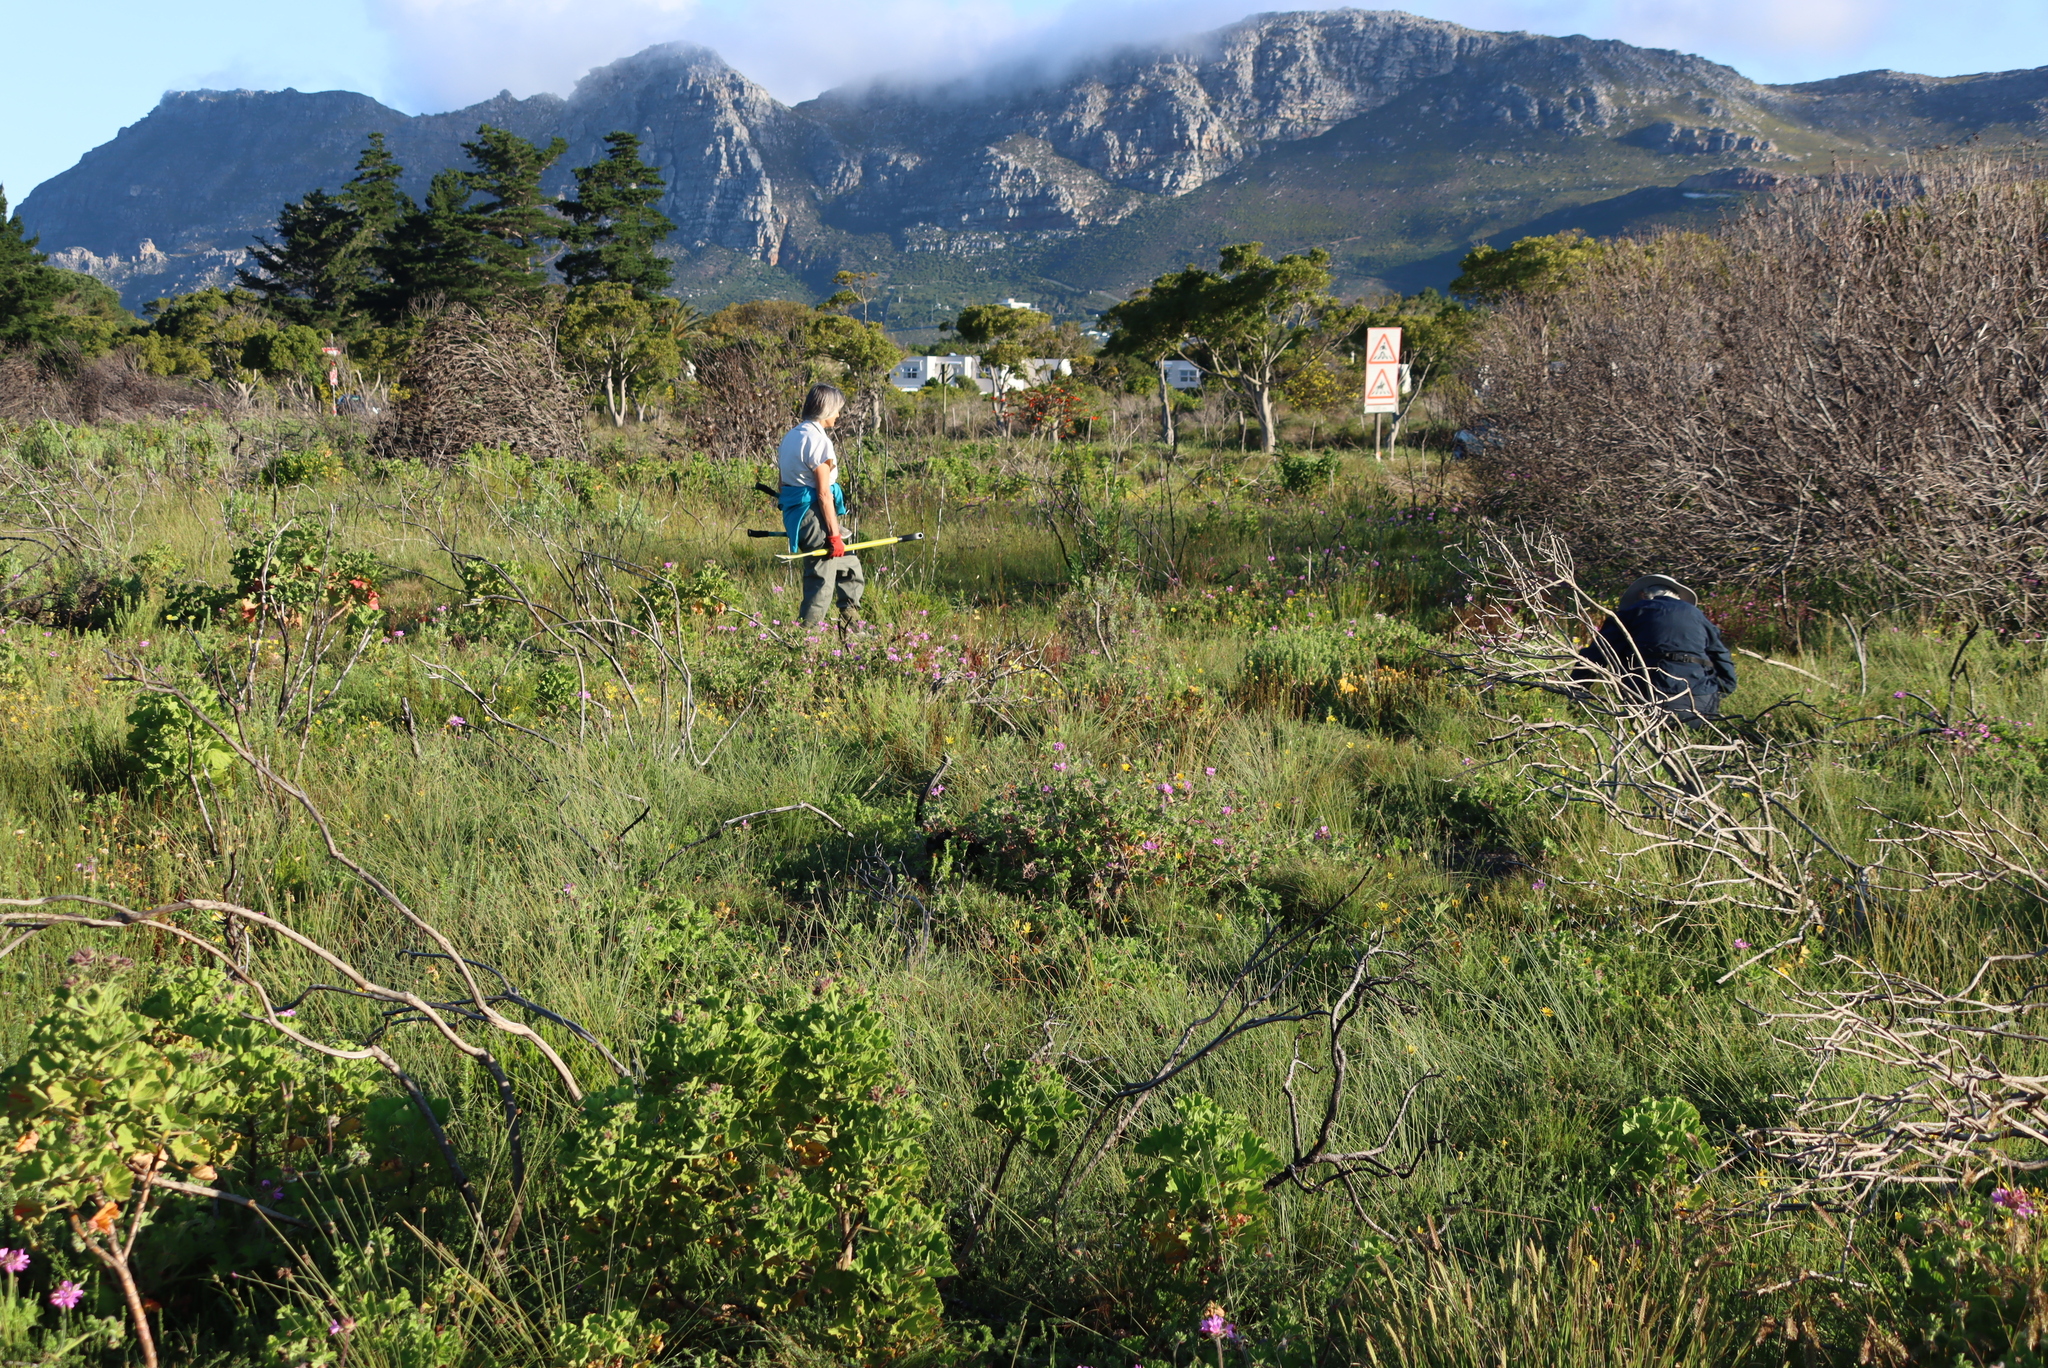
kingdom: Plantae
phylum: Tracheophyta
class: Magnoliopsida
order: Geraniales
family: Geraniaceae
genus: Pelargonium
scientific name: Pelargonium cucullatum
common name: Tree pelargonium
